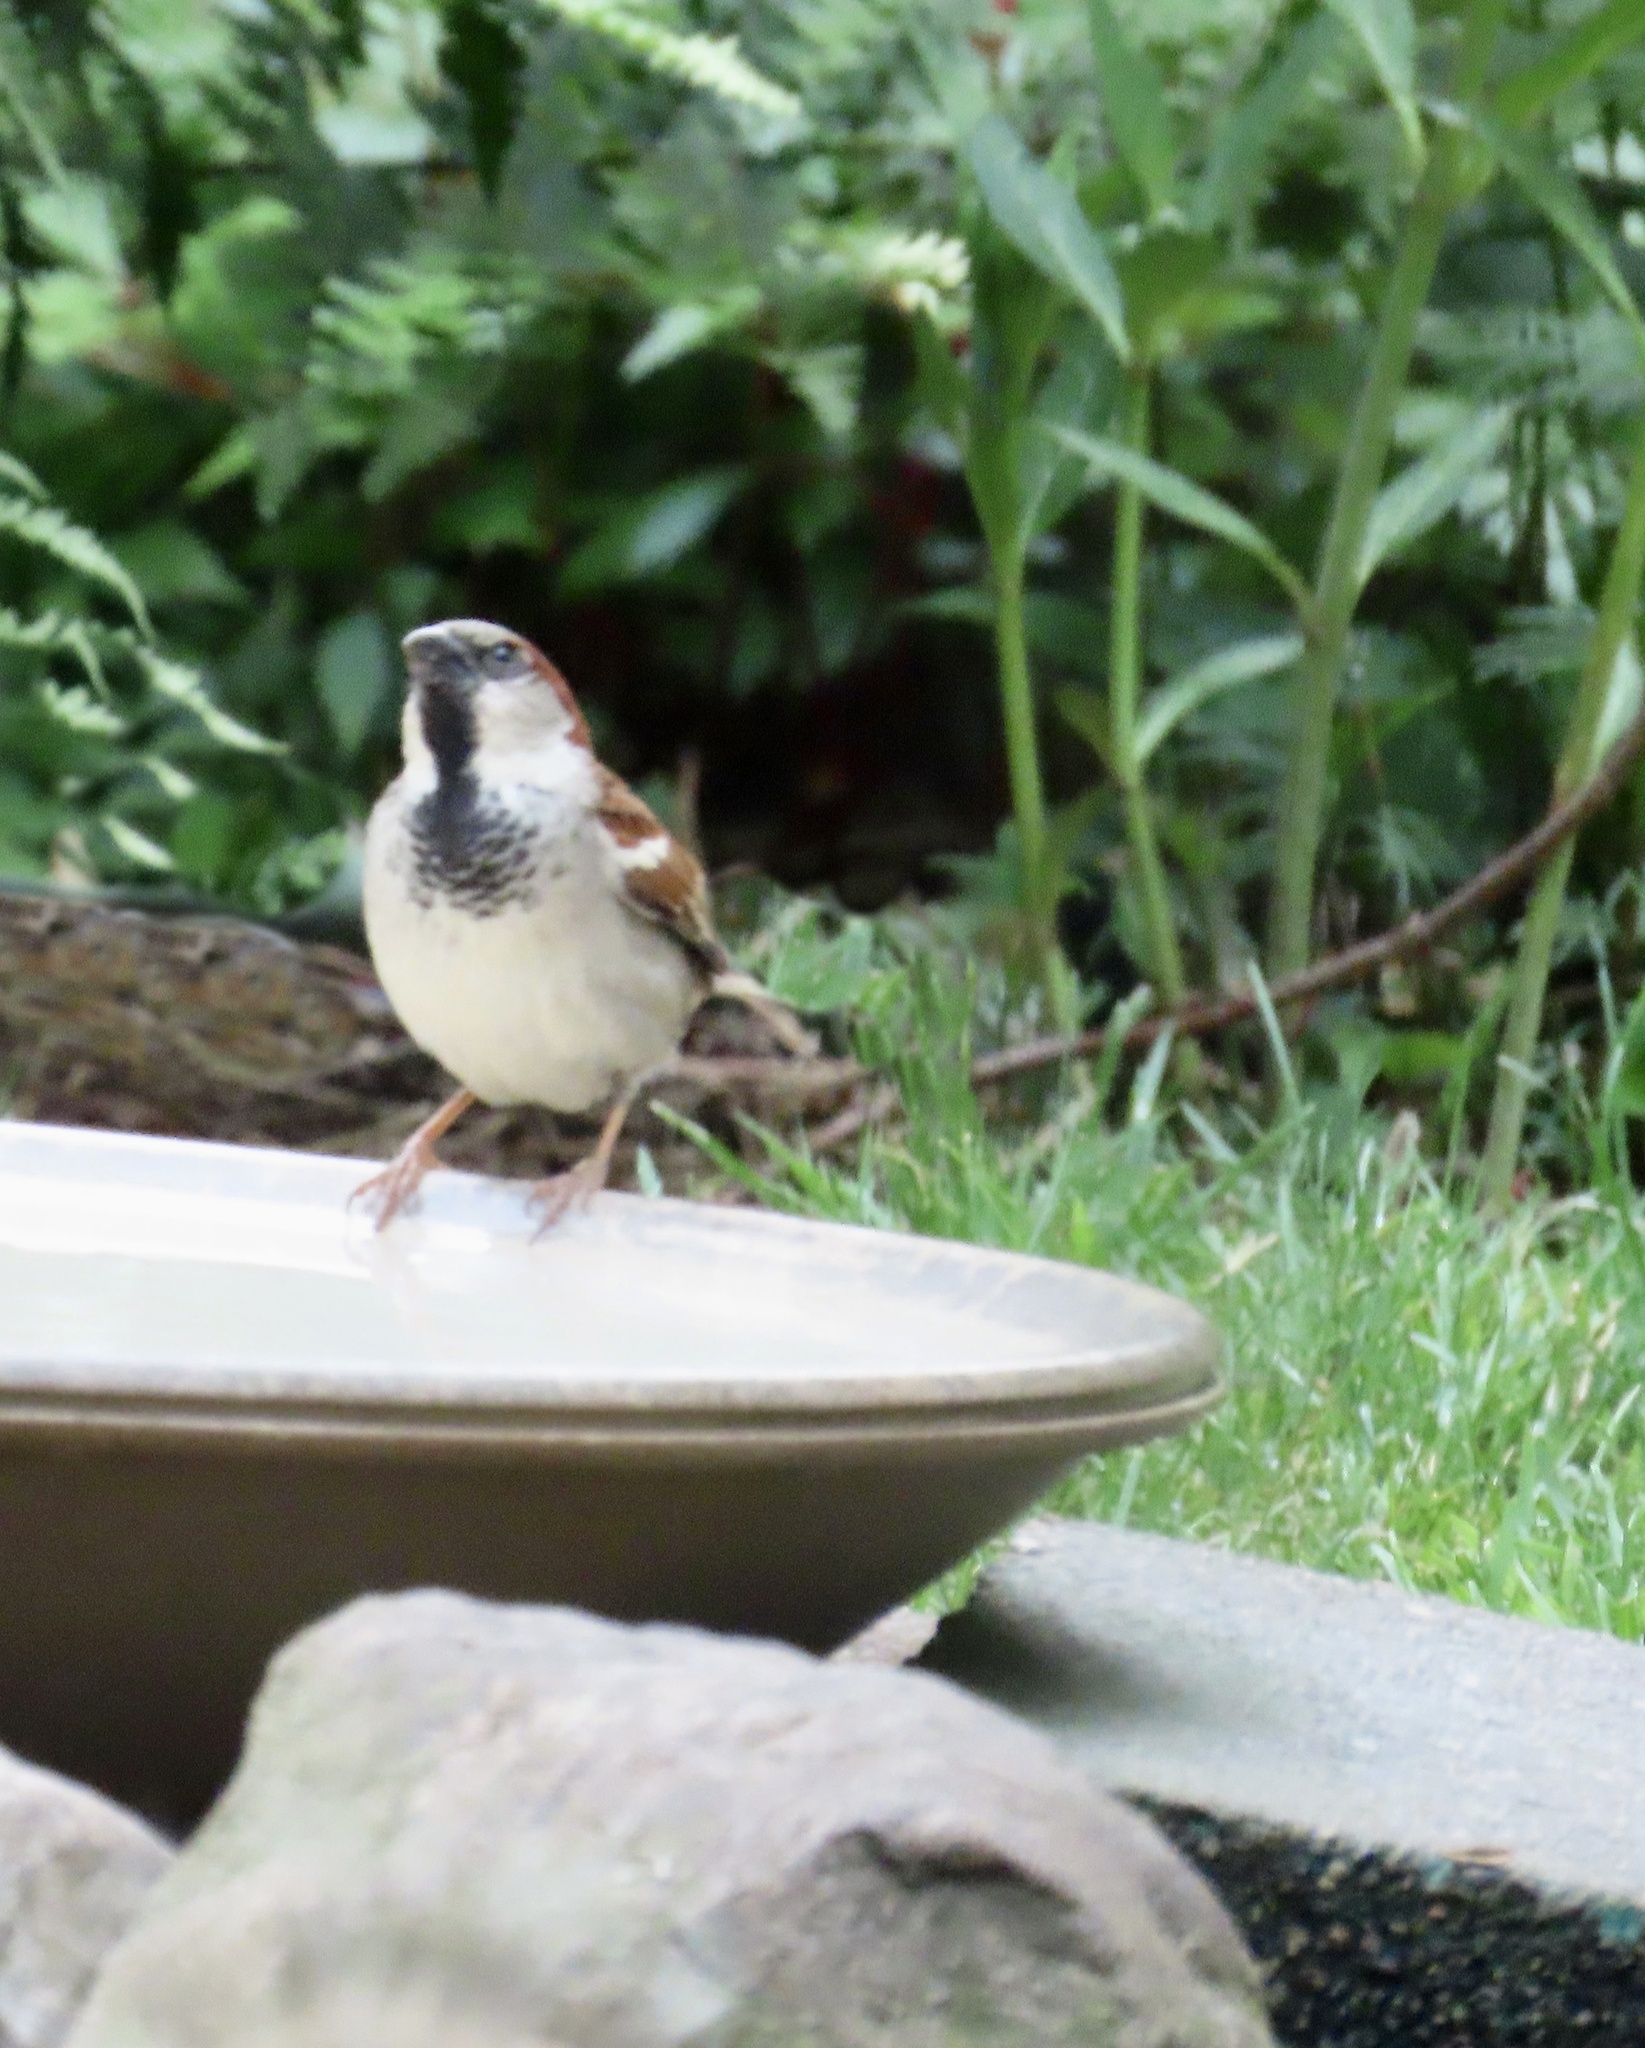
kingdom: Animalia
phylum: Chordata
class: Aves
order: Passeriformes
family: Passeridae
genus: Passer
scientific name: Passer domesticus
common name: House sparrow
